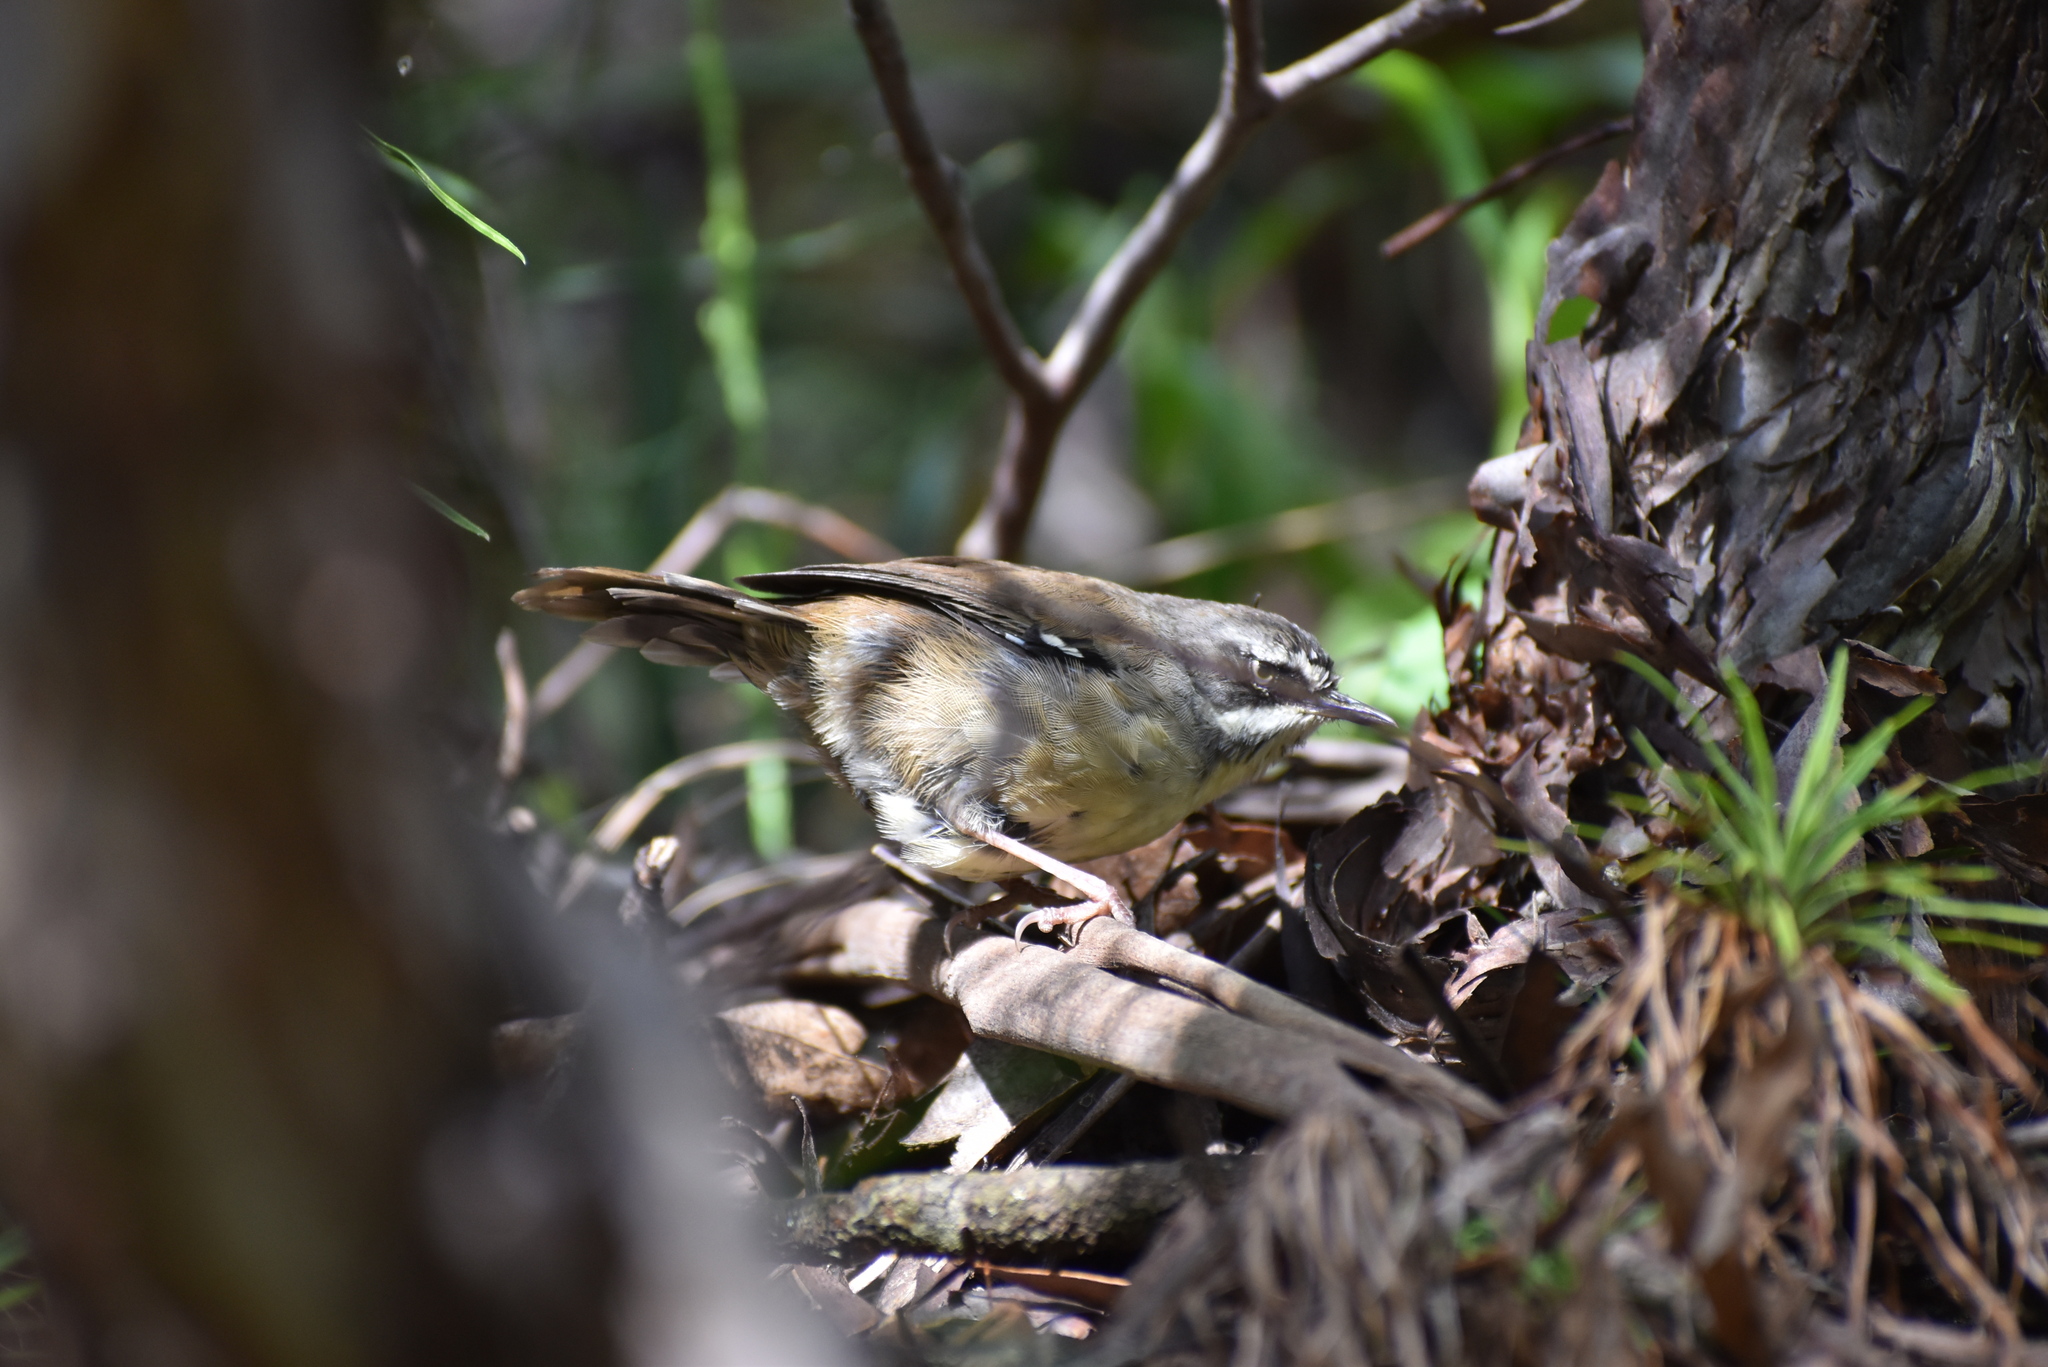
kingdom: Animalia
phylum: Chordata
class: Aves
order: Passeriformes
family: Acanthizidae
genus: Sericornis
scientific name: Sericornis frontalis
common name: White-browed scrubwren
